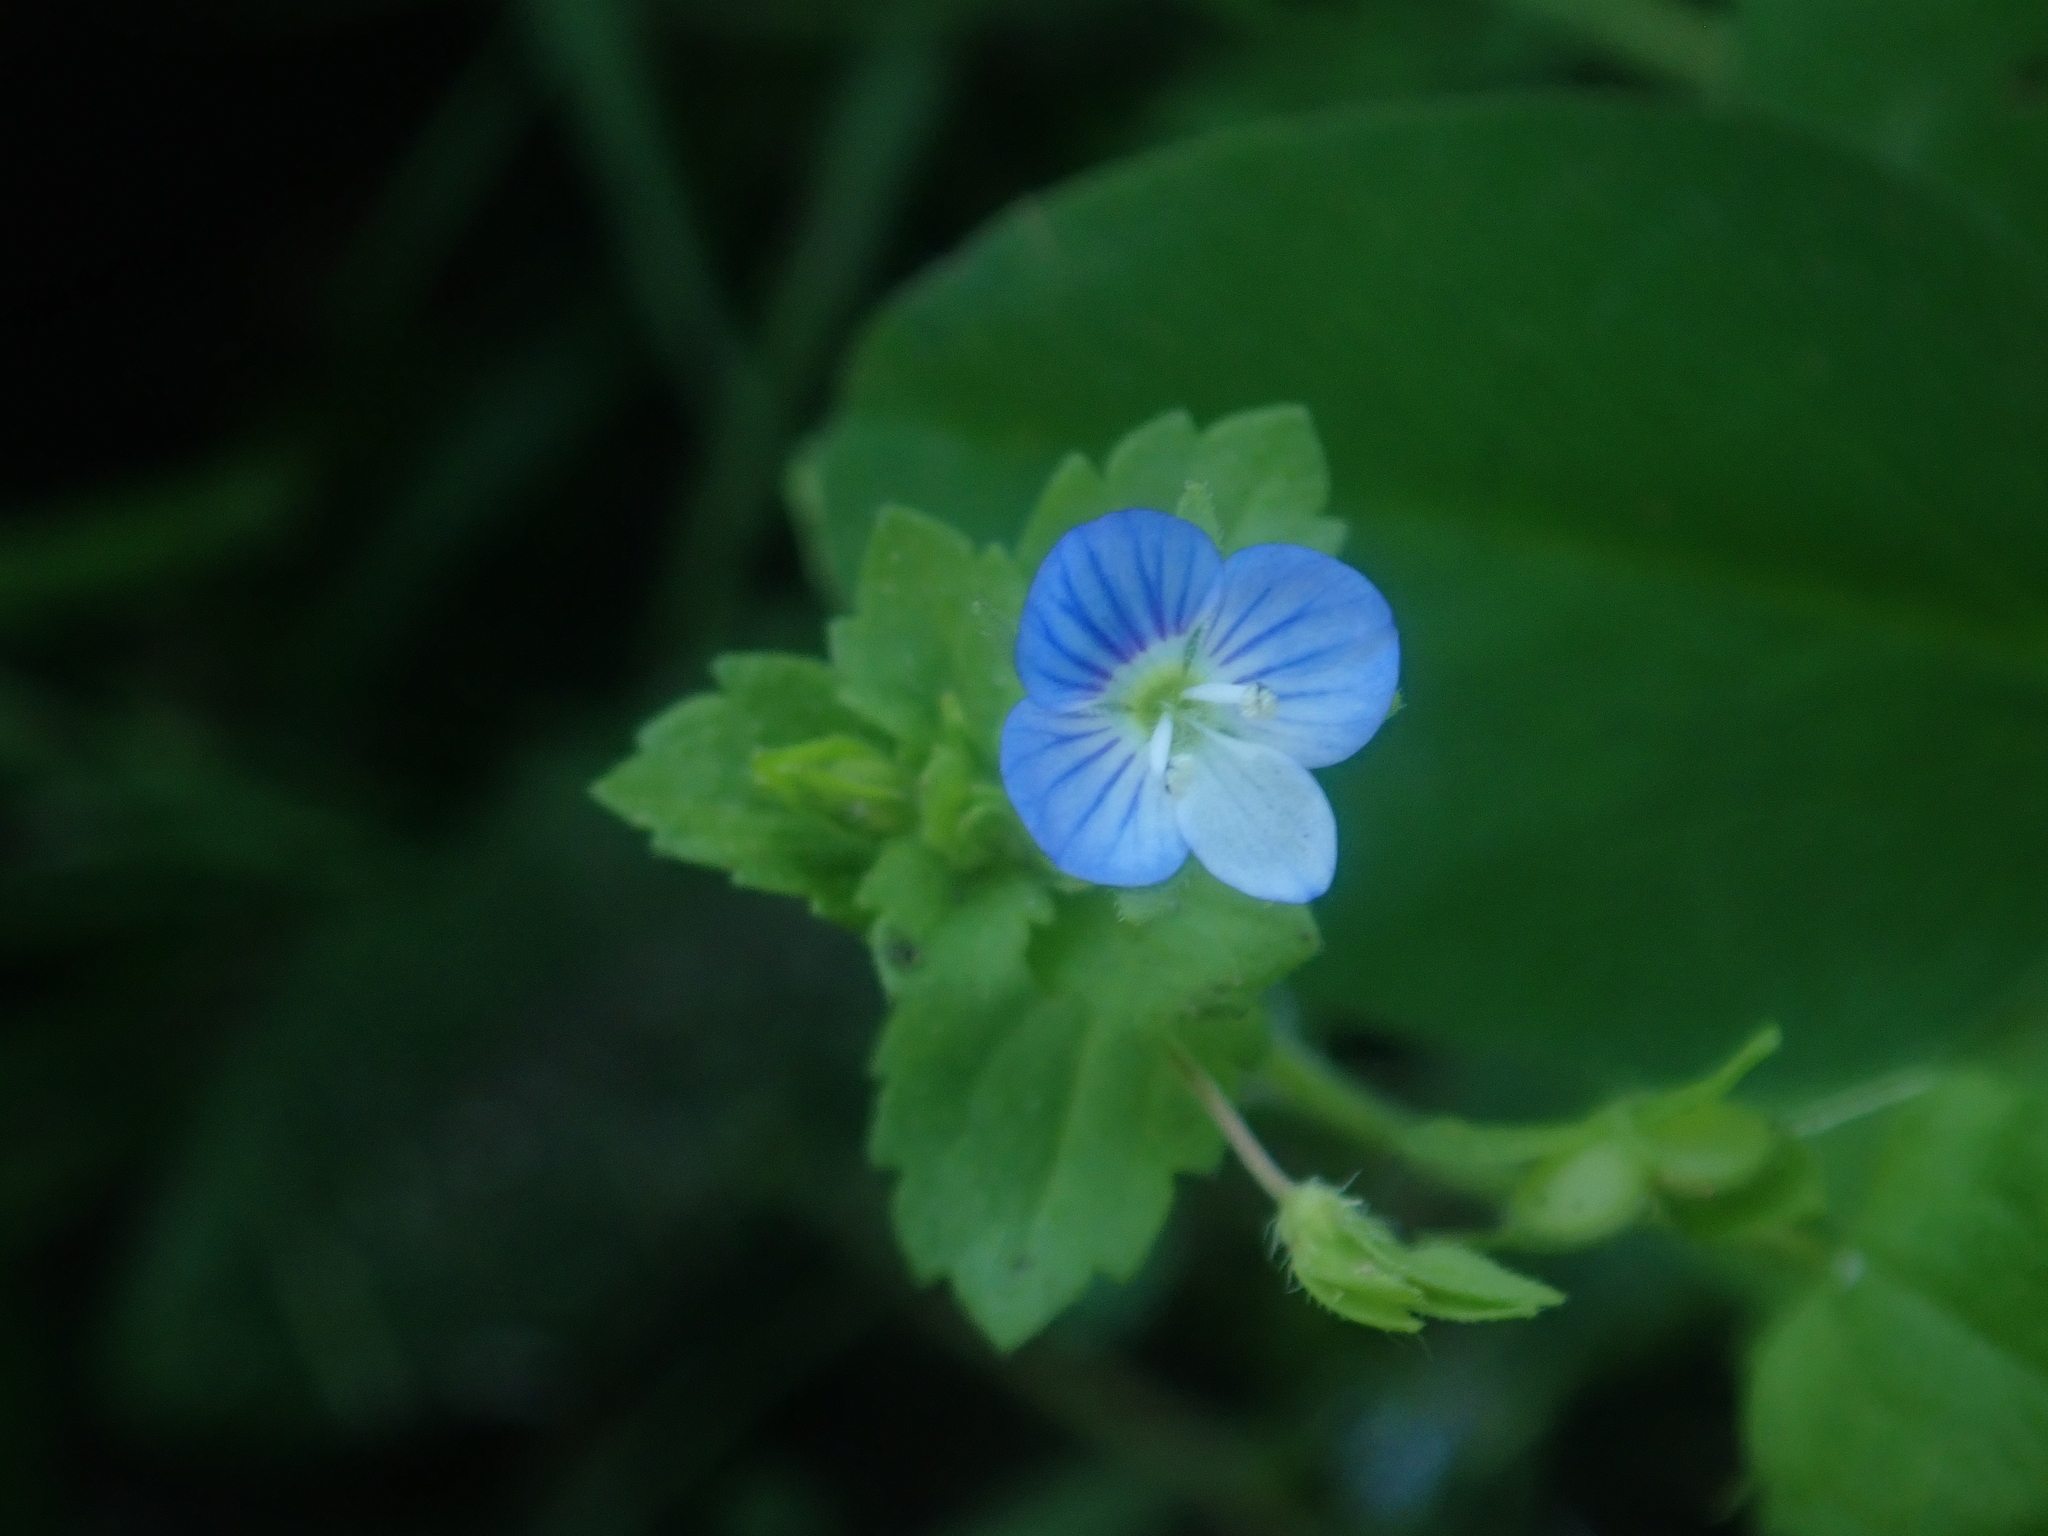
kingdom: Plantae
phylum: Tracheophyta
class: Magnoliopsida
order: Lamiales
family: Plantaginaceae
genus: Veronica
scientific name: Veronica persica
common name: Common field-speedwell
